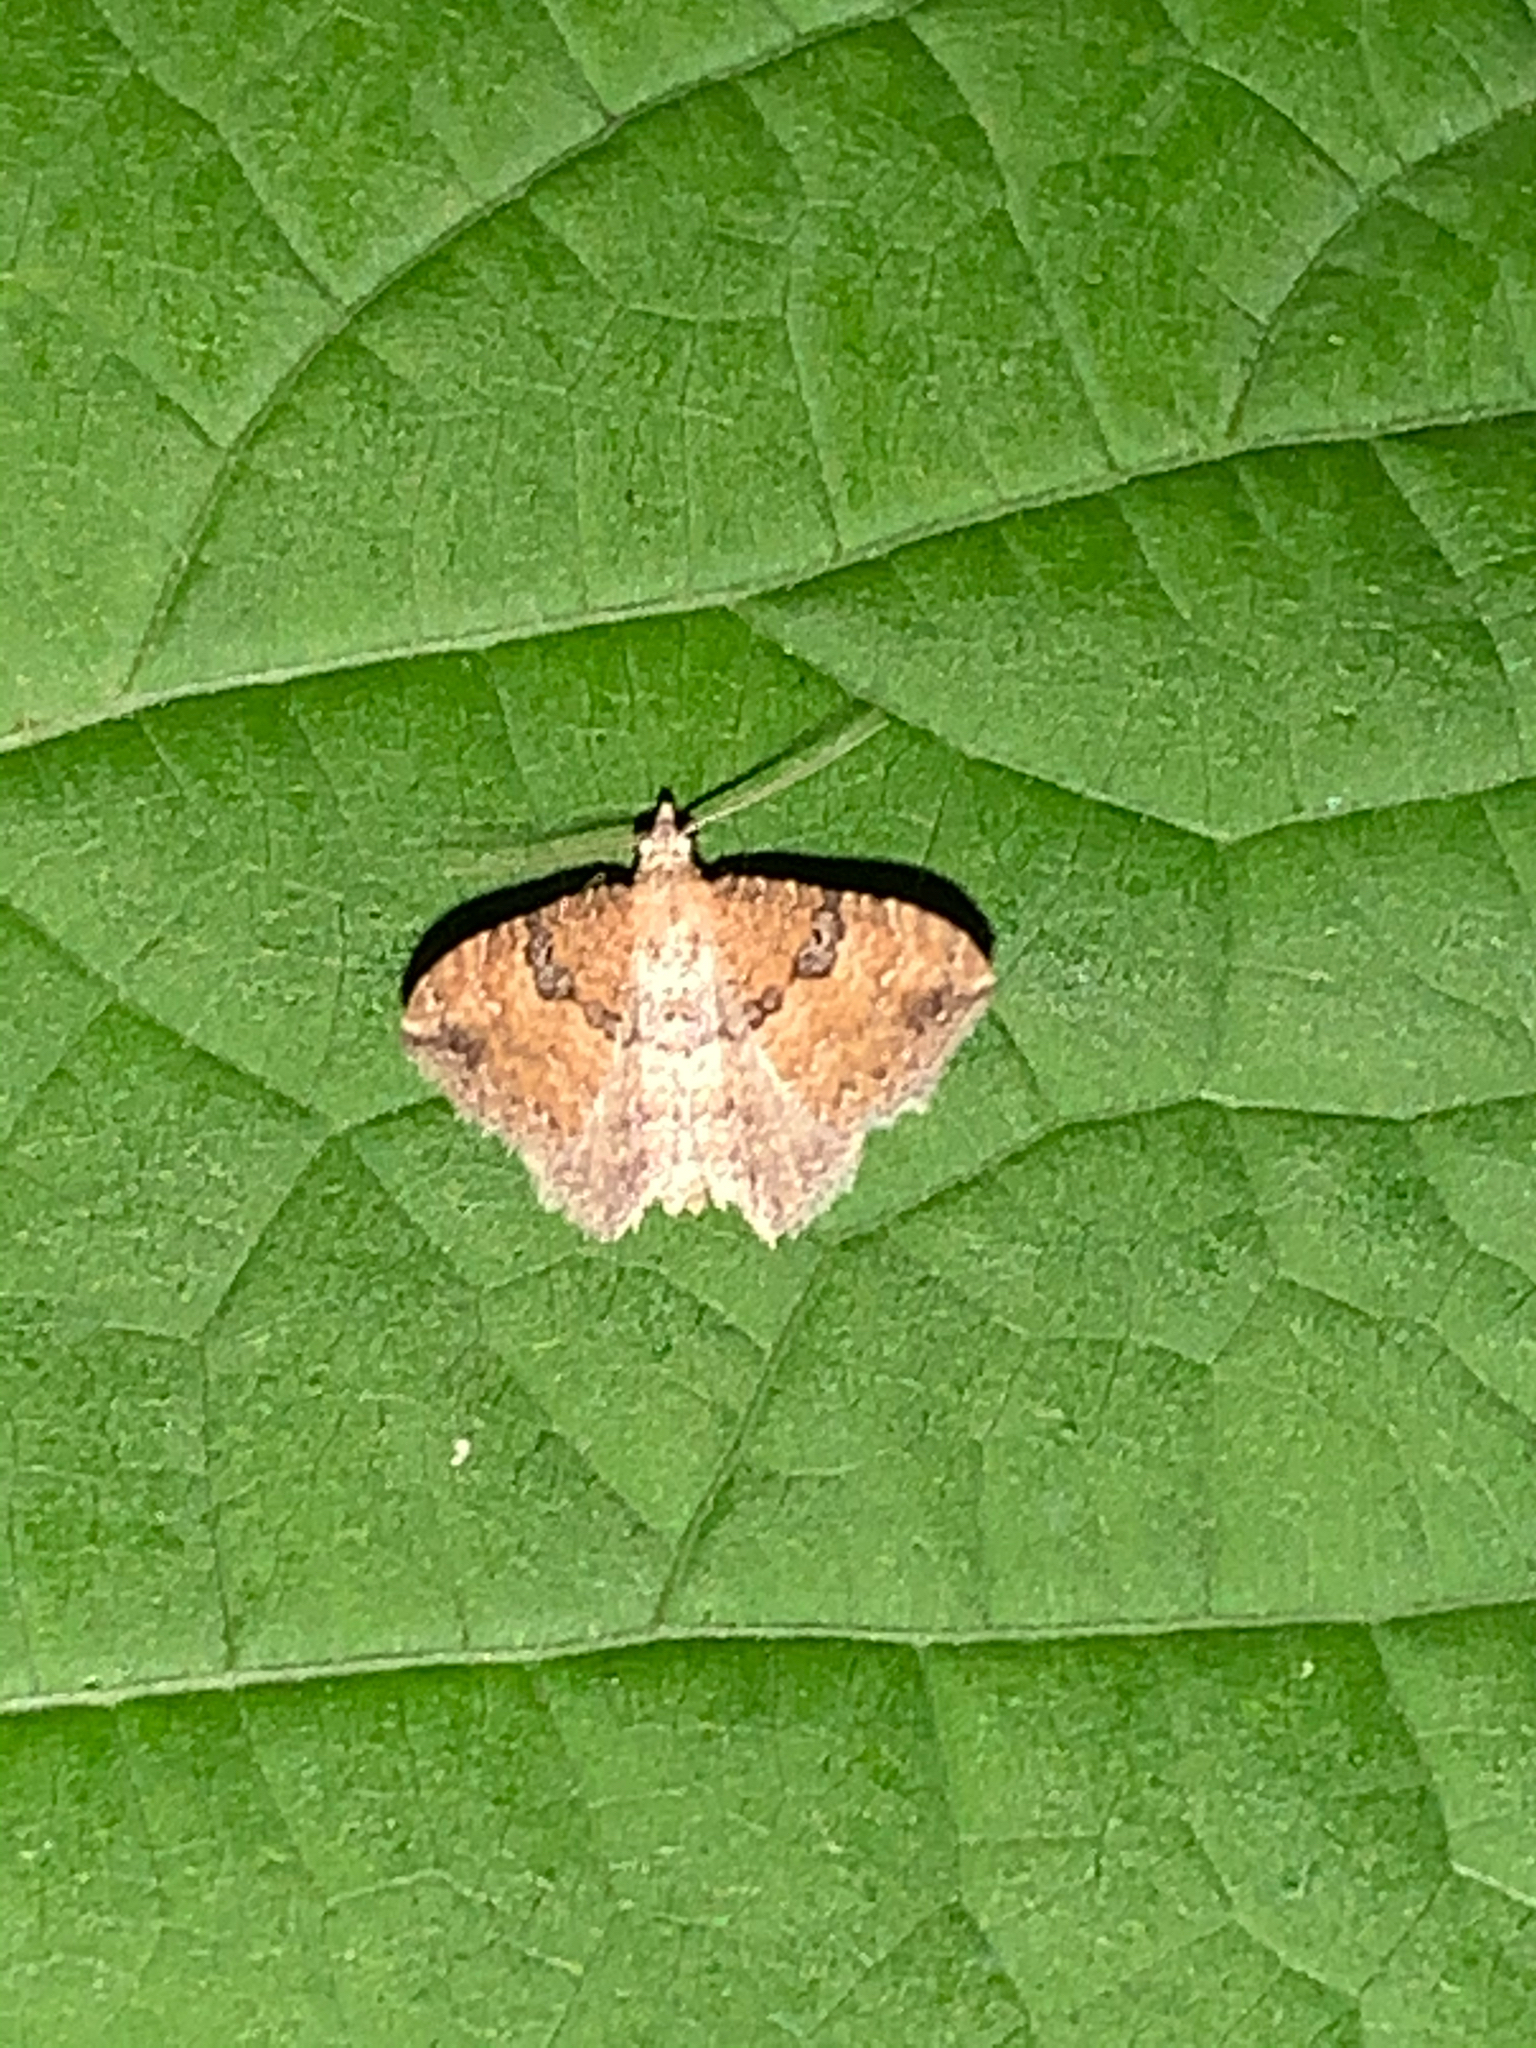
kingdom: Animalia
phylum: Arthropoda
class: Insecta
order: Lepidoptera
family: Geometridae
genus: Orthonama
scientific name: Orthonama obstipata
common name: The gem
